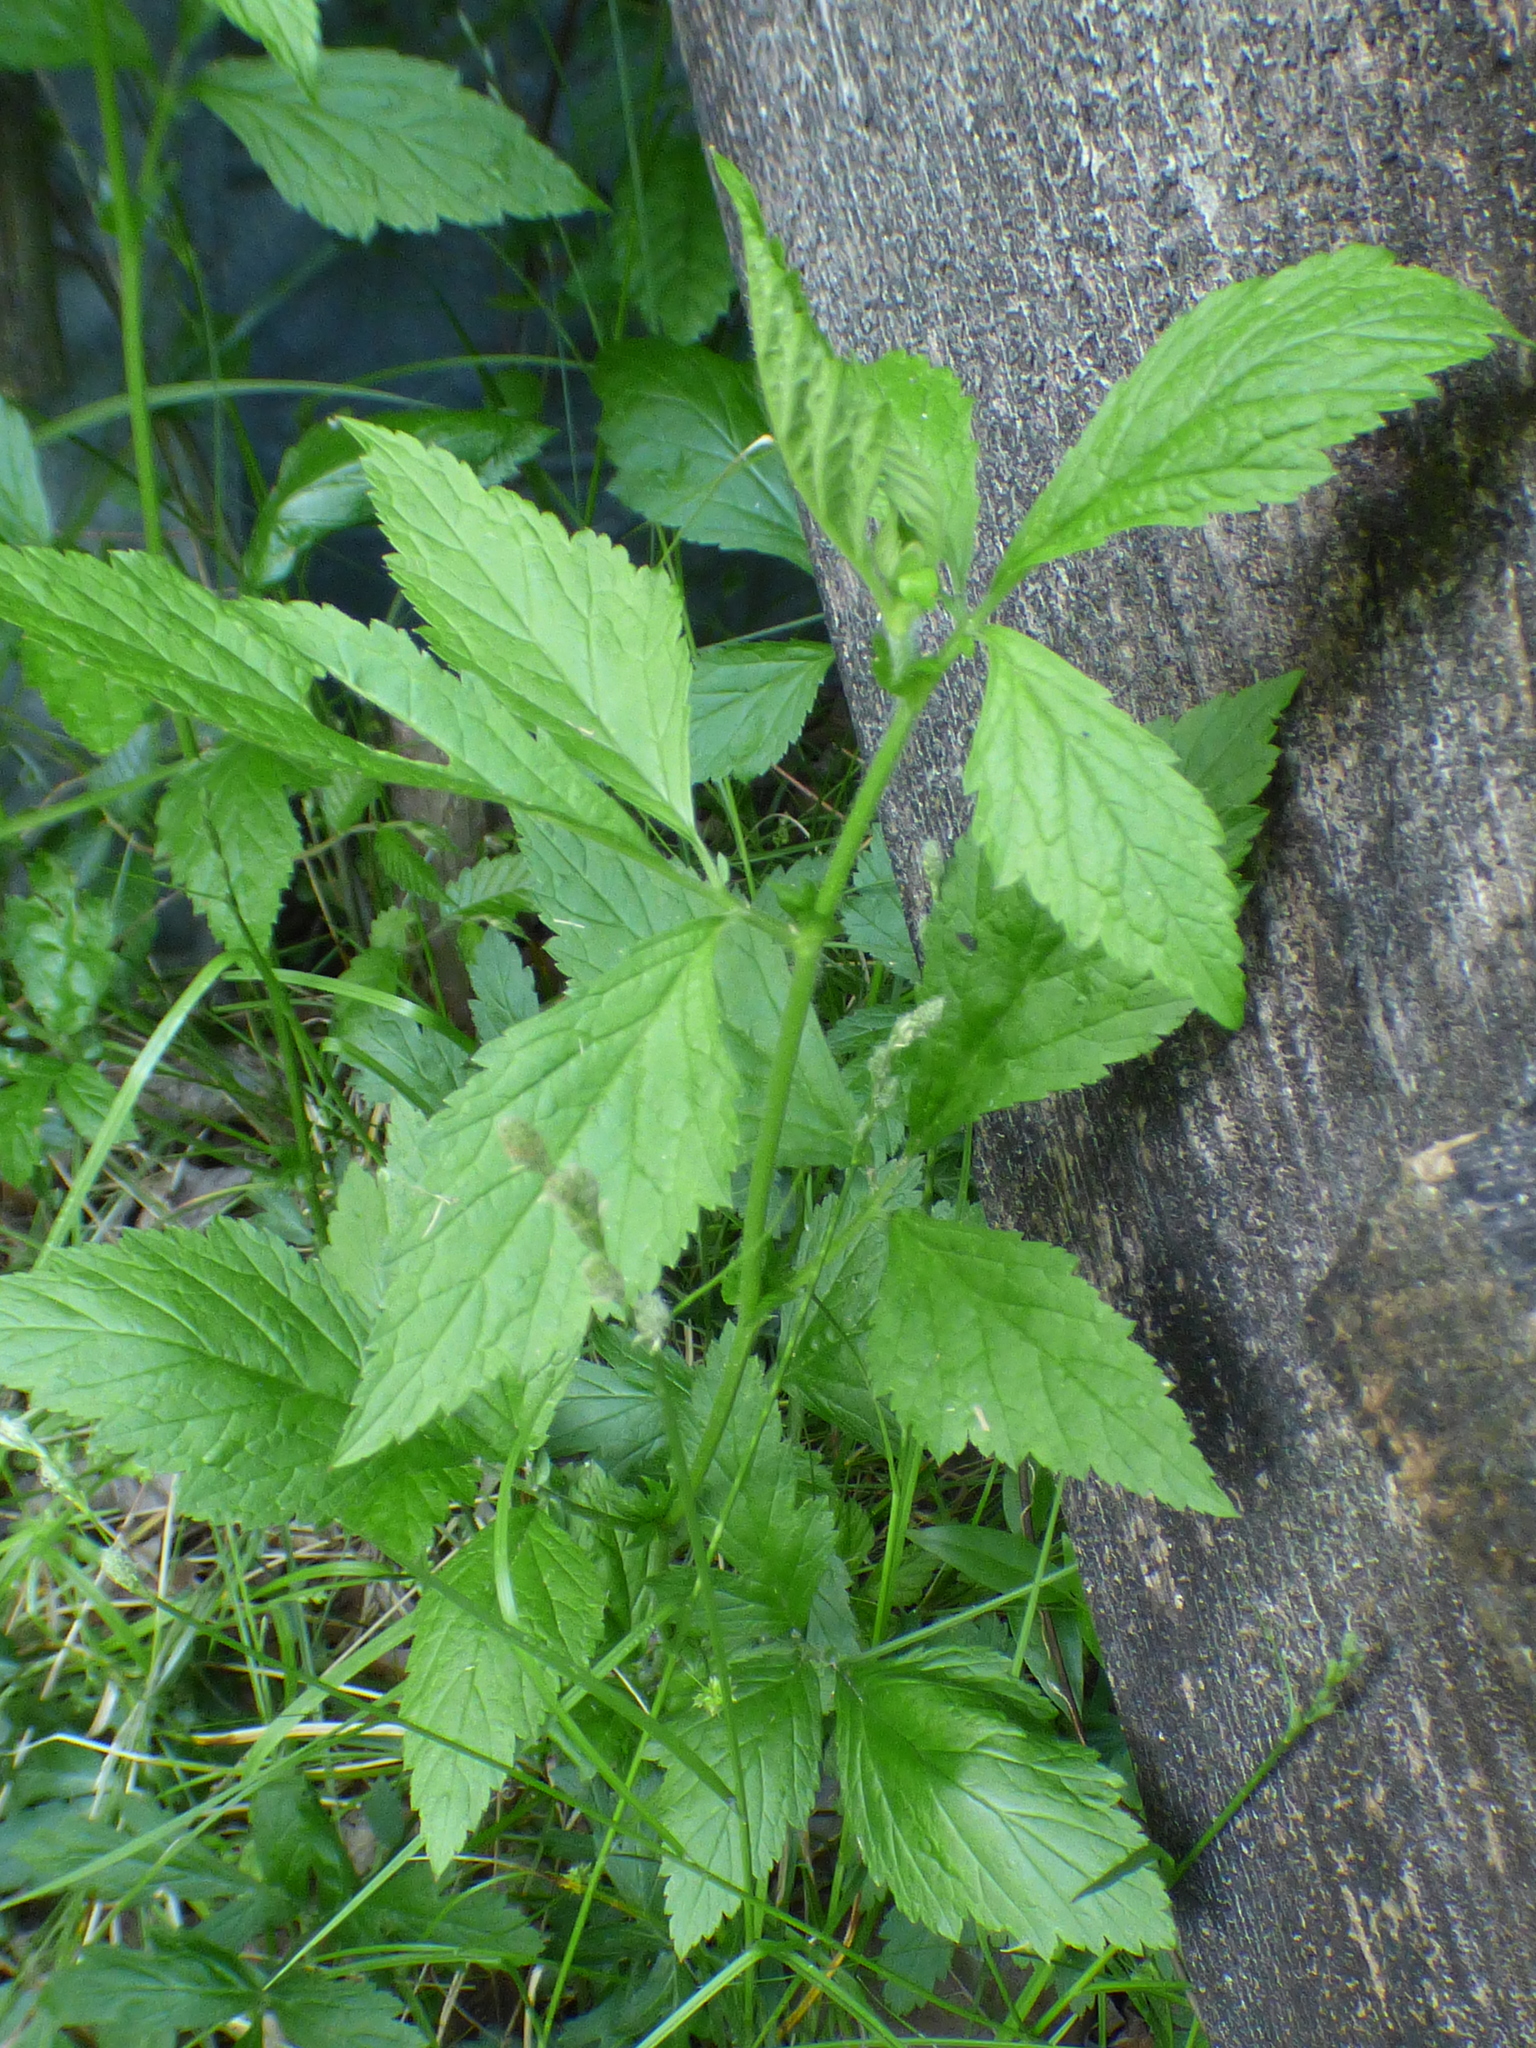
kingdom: Plantae
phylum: Tracheophyta
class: Magnoliopsida
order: Rosales
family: Rosaceae
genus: Geum
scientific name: Geum canadense
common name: White avens
